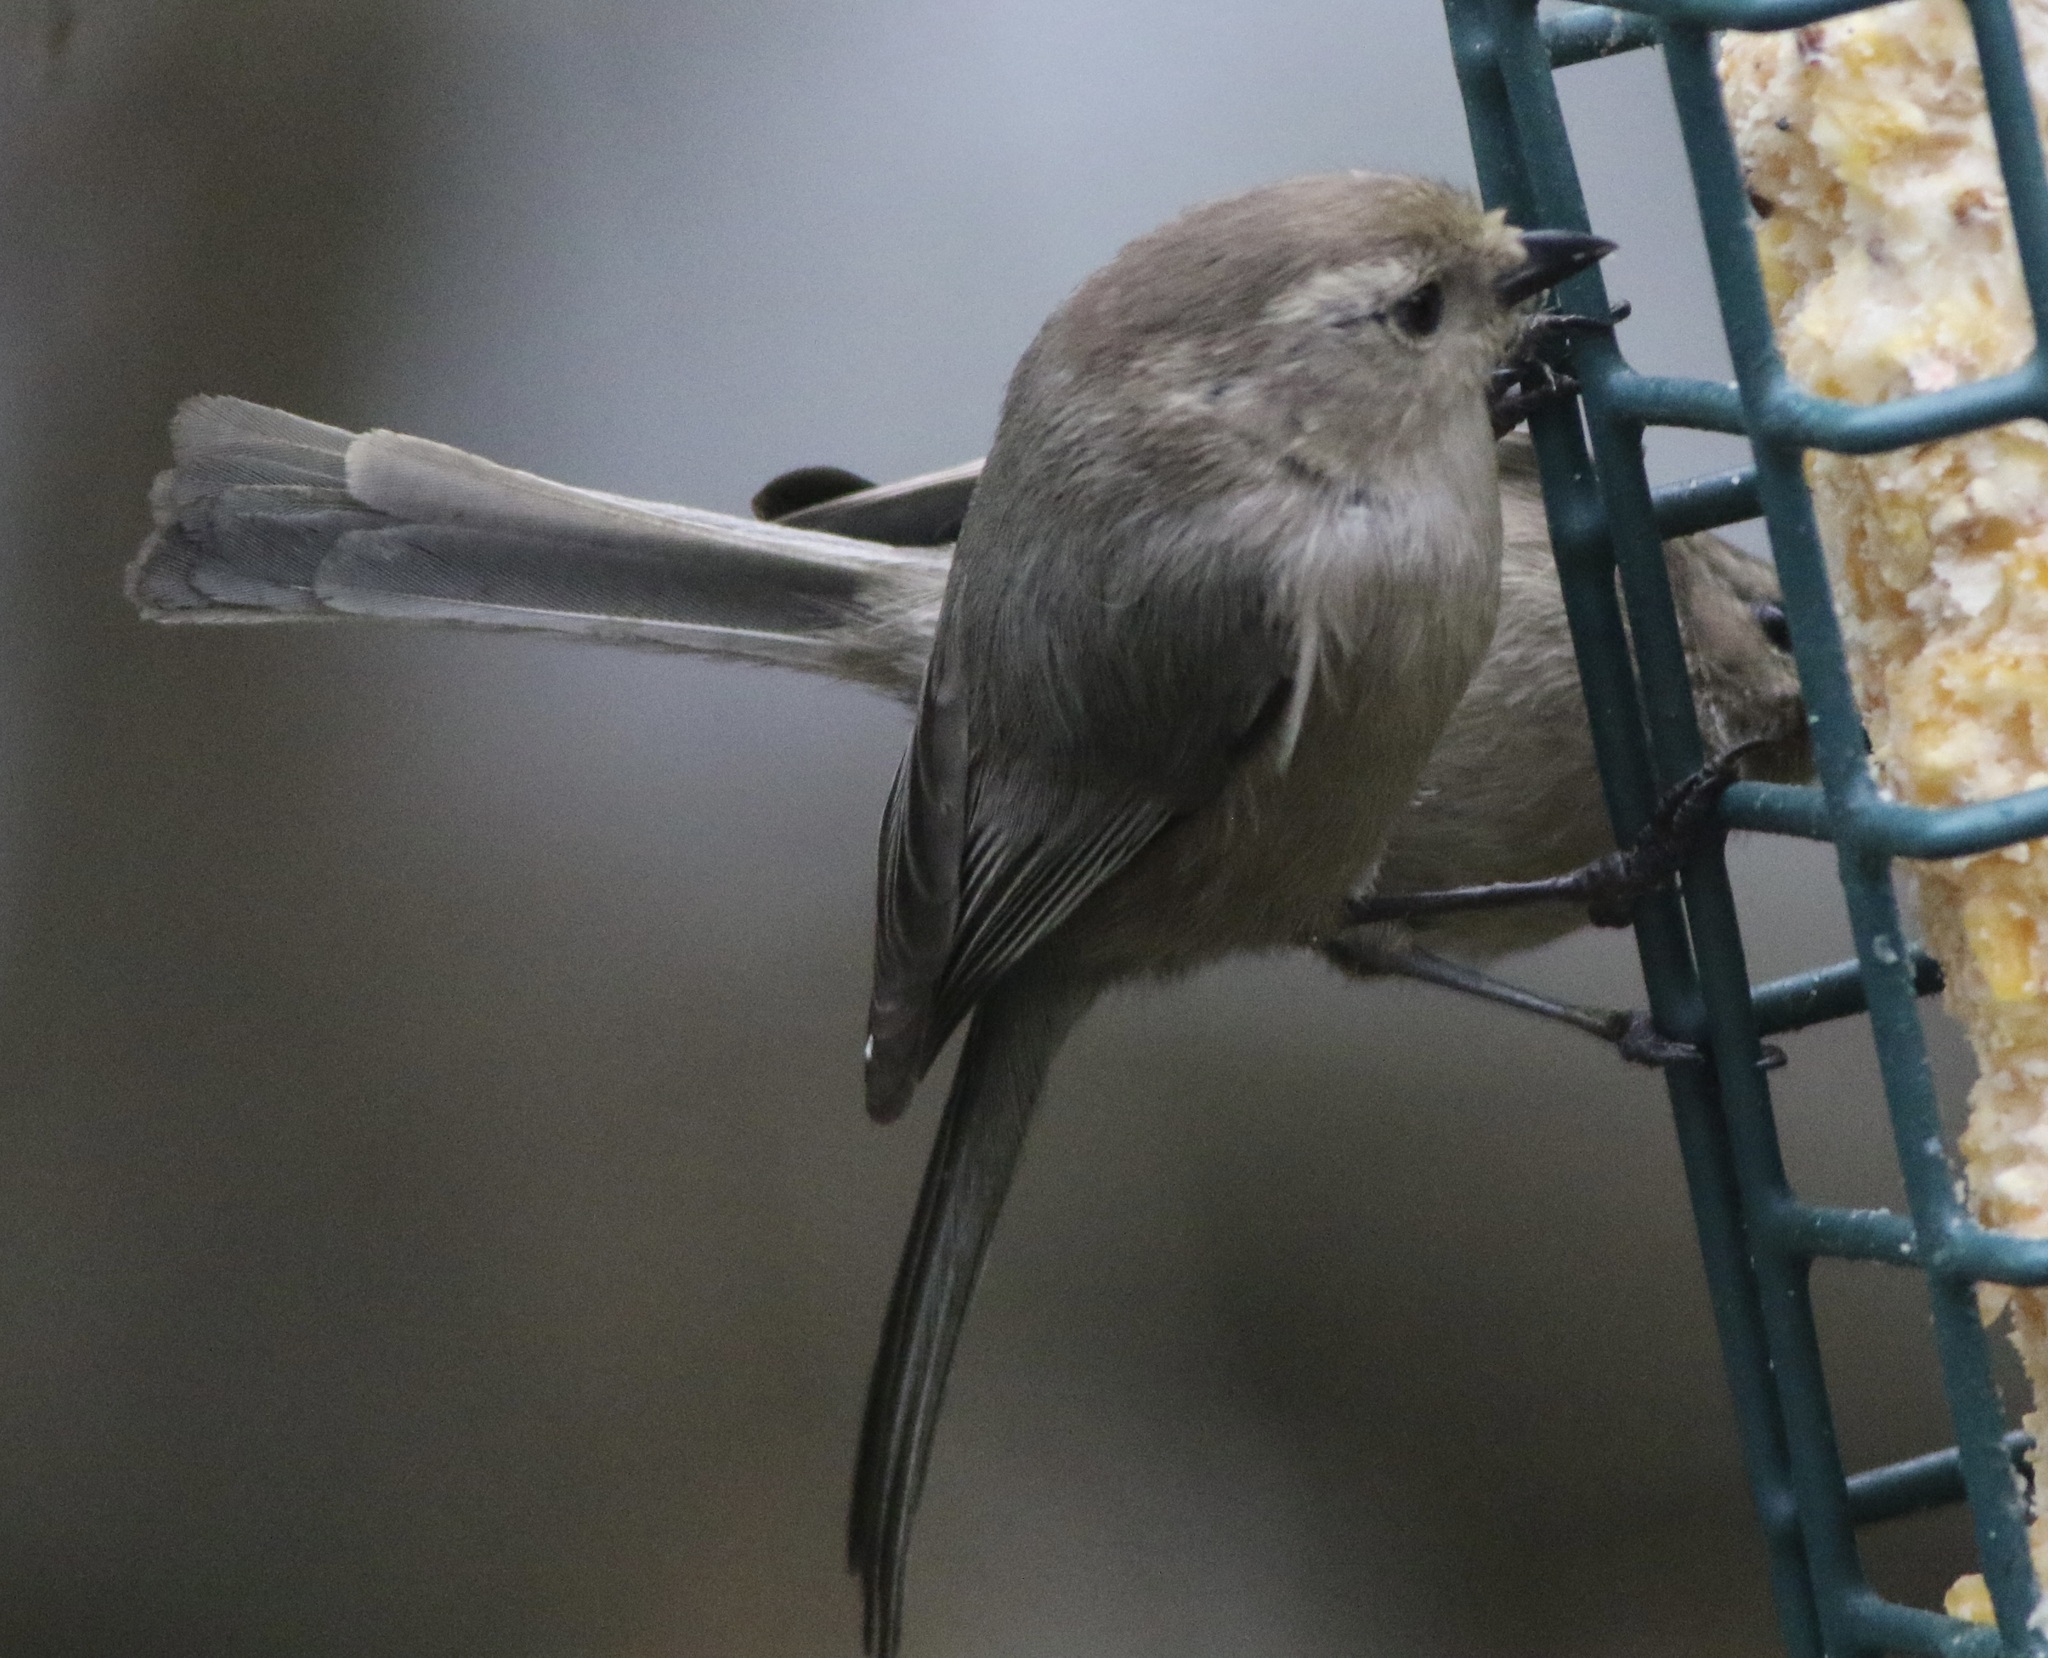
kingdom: Animalia
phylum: Chordata
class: Aves
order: Passeriformes
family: Aegithalidae
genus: Psaltriparus
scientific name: Psaltriparus minimus
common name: American bushtit
